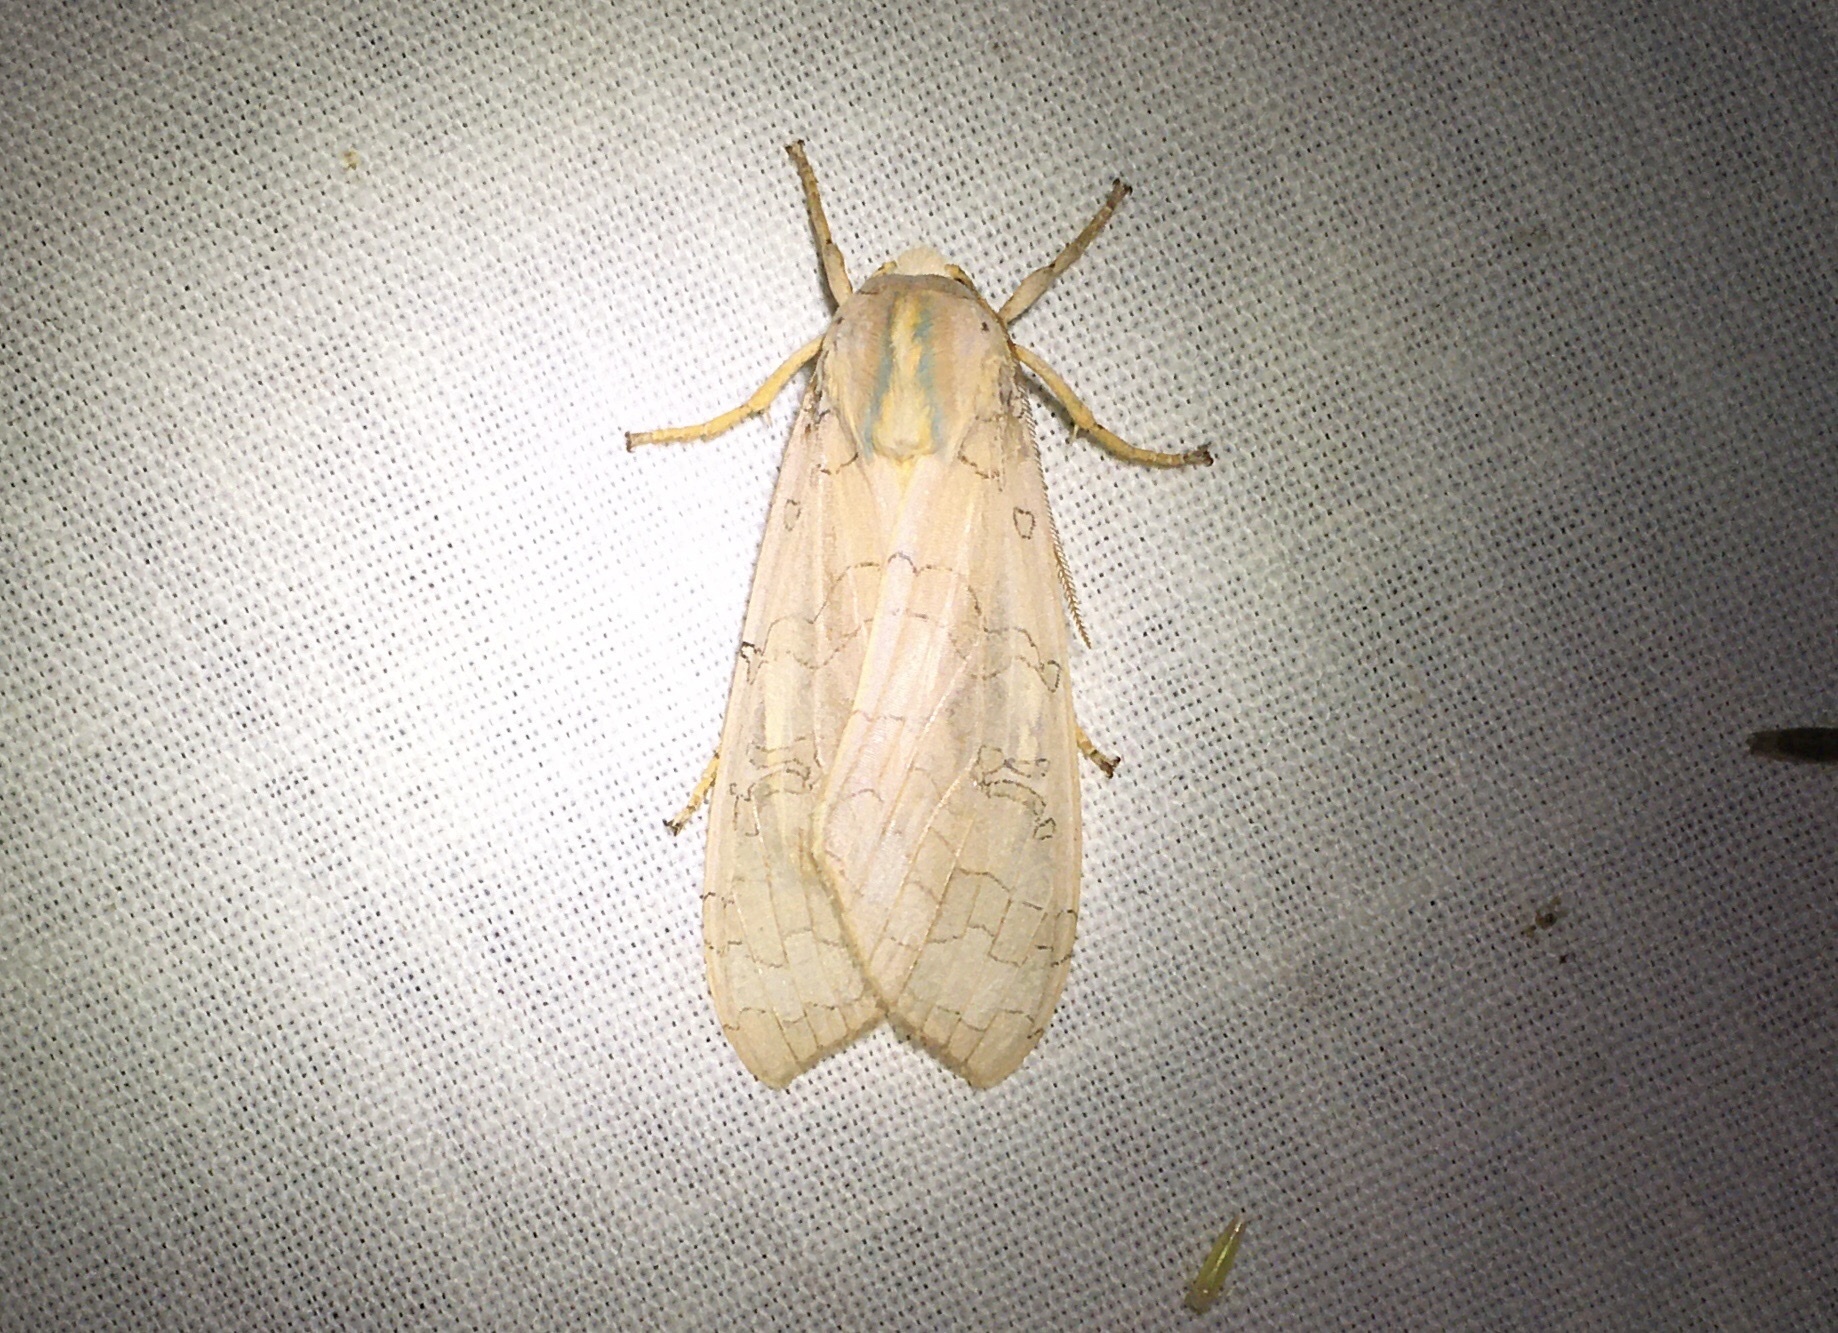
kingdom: Animalia
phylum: Arthropoda
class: Insecta
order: Lepidoptera
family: Erebidae
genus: Halysidota
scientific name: Halysidota tessellaris
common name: Banded tussock moth
